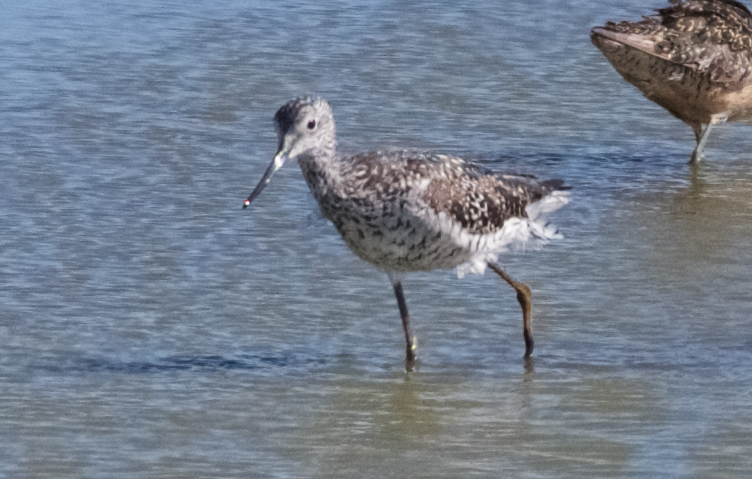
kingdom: Animalia
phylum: Chordata
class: Aves
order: Charadriiformes
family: Scolopacidae
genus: Tringa
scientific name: Tringa melanoleuca
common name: Greater yellowlegs
